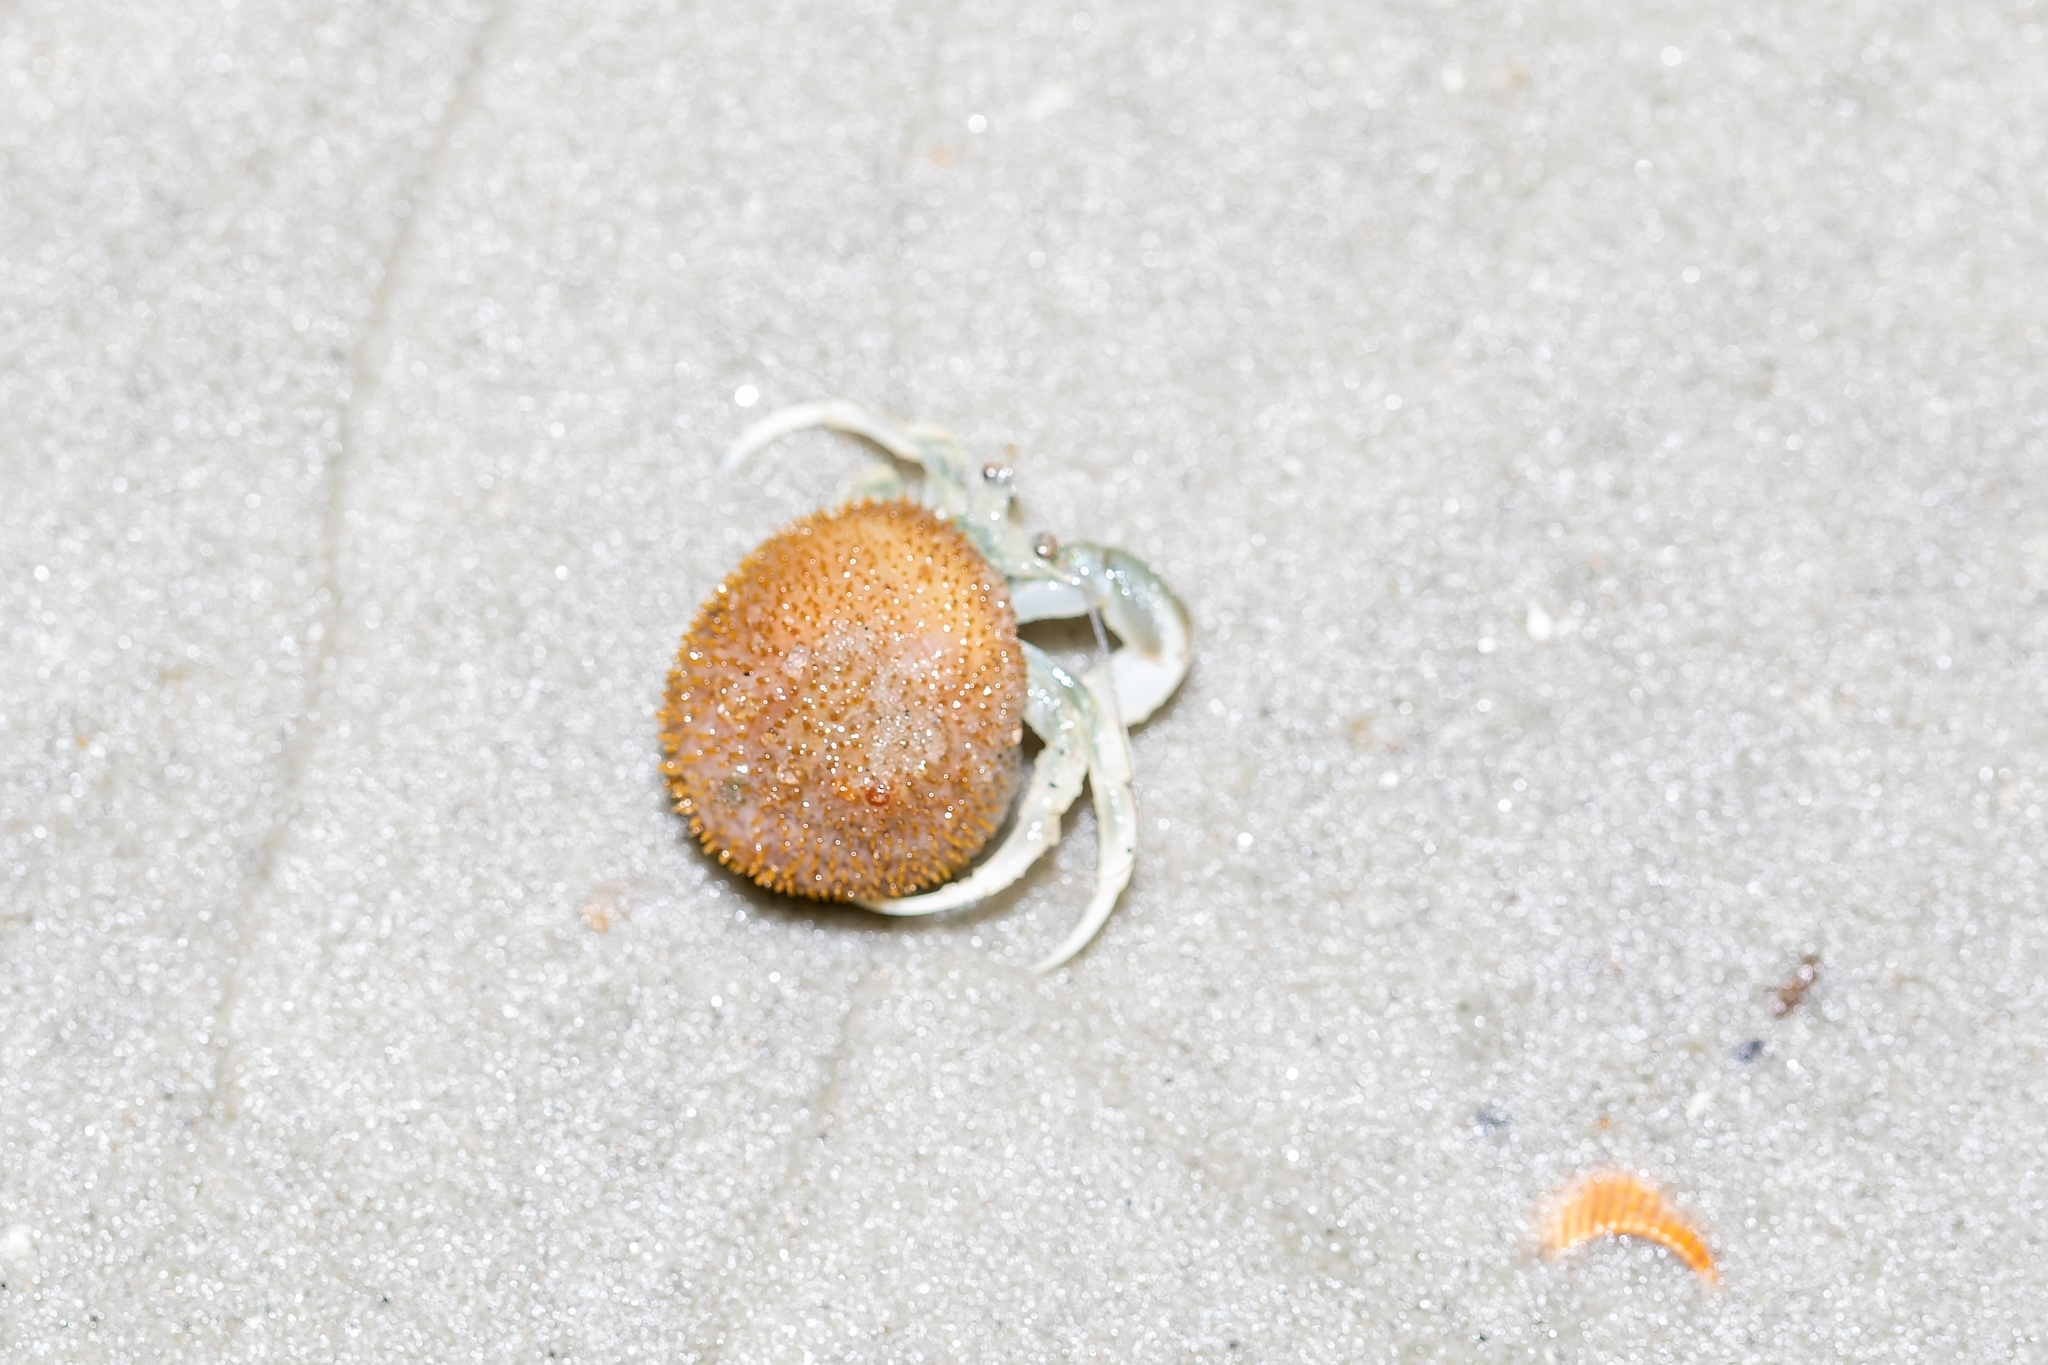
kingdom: Animalia
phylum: Arthropoda
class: Malacostraca
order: Decapoda
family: Paguridae
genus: Pagurus
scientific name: Pagurus longicarpus
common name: Long-armed hermit crab
